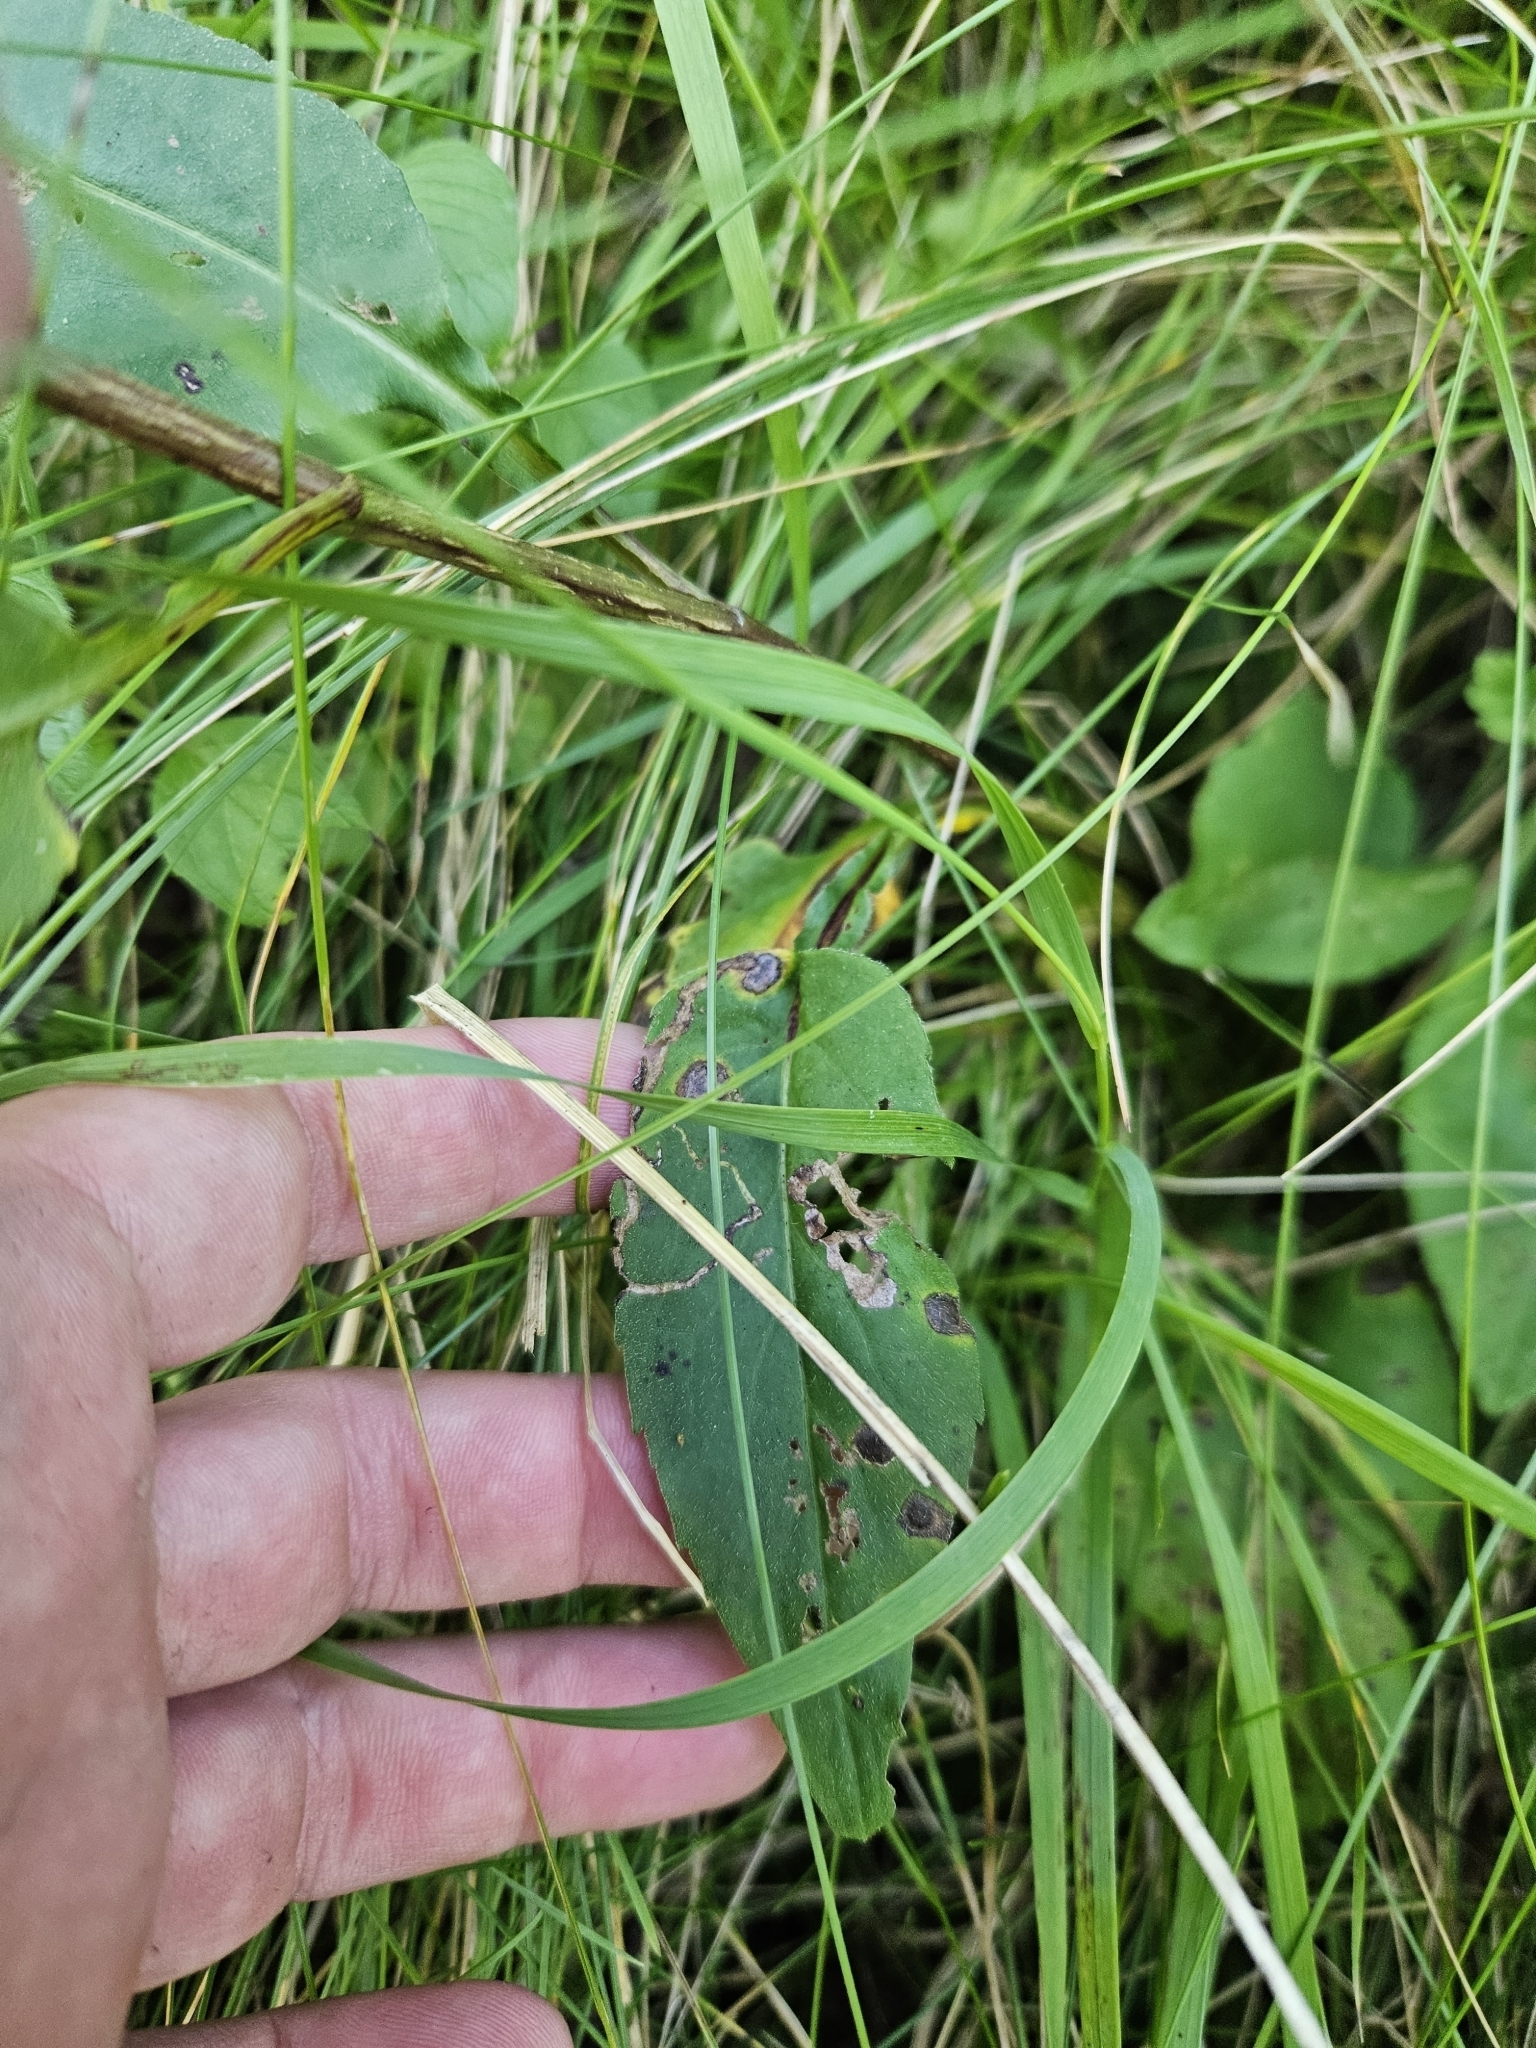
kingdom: Animalia
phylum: Arthropoda
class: Insecta
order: Diptera
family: Cecidomyiidae
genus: Asteromyia
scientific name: Asteromyia laeviana
